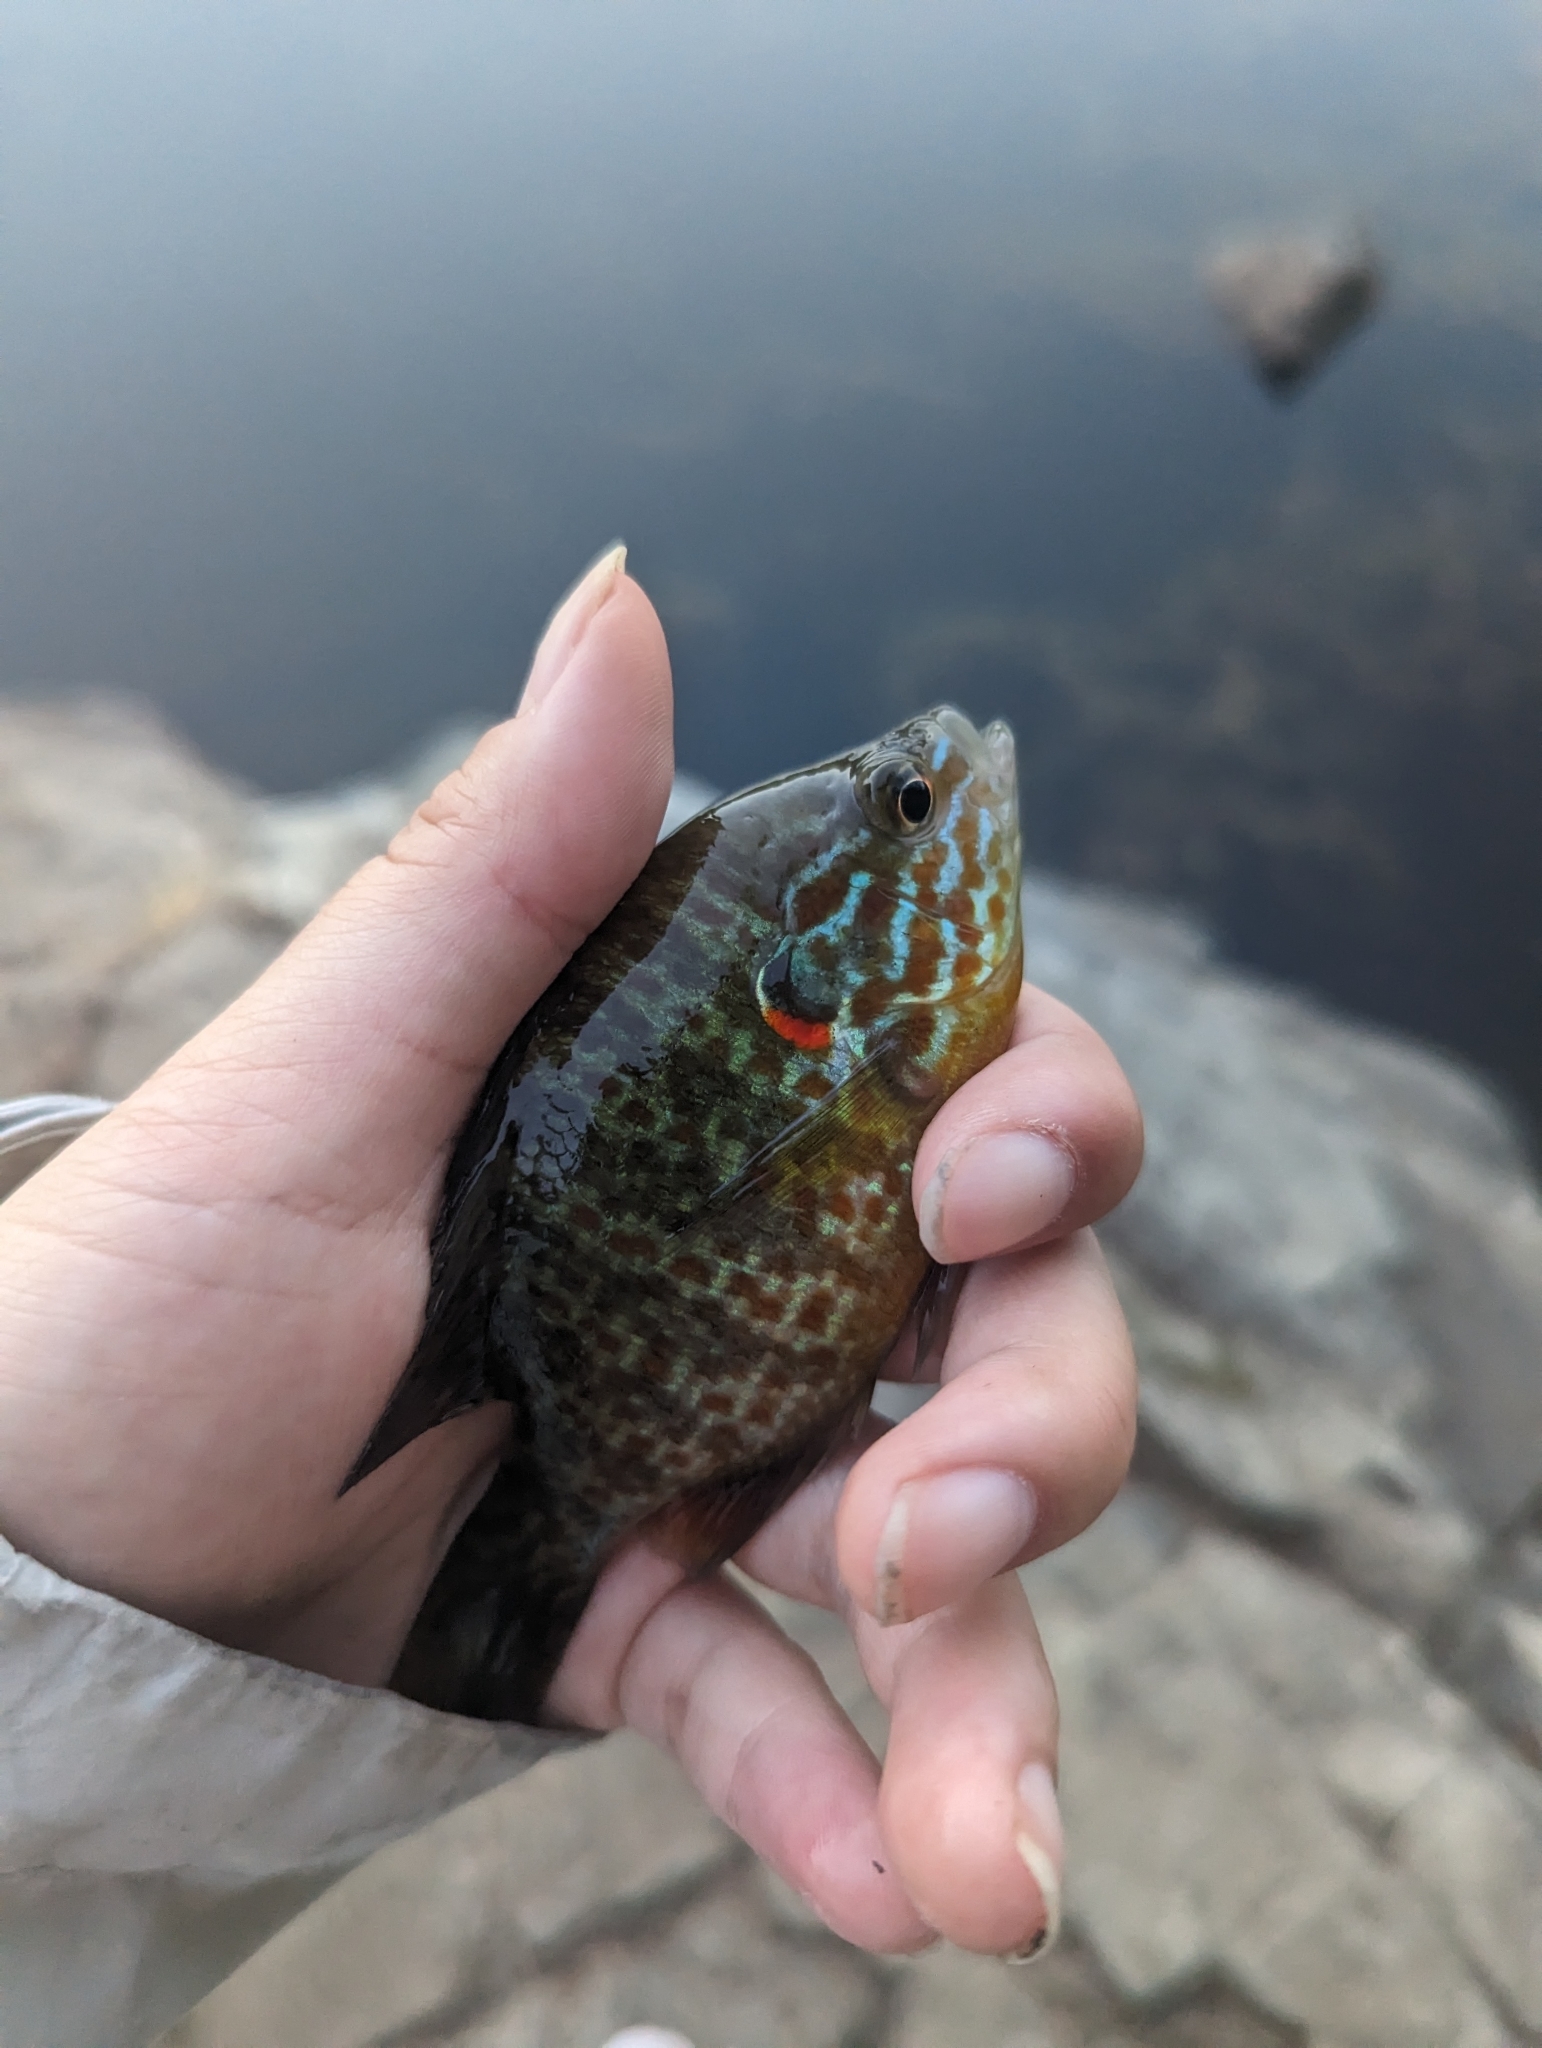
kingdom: Animalia
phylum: Chordata
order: Perciformes
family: Centrarchidae
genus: Lepomis
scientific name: Lepomis gibbosus
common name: Pumpkinseed
